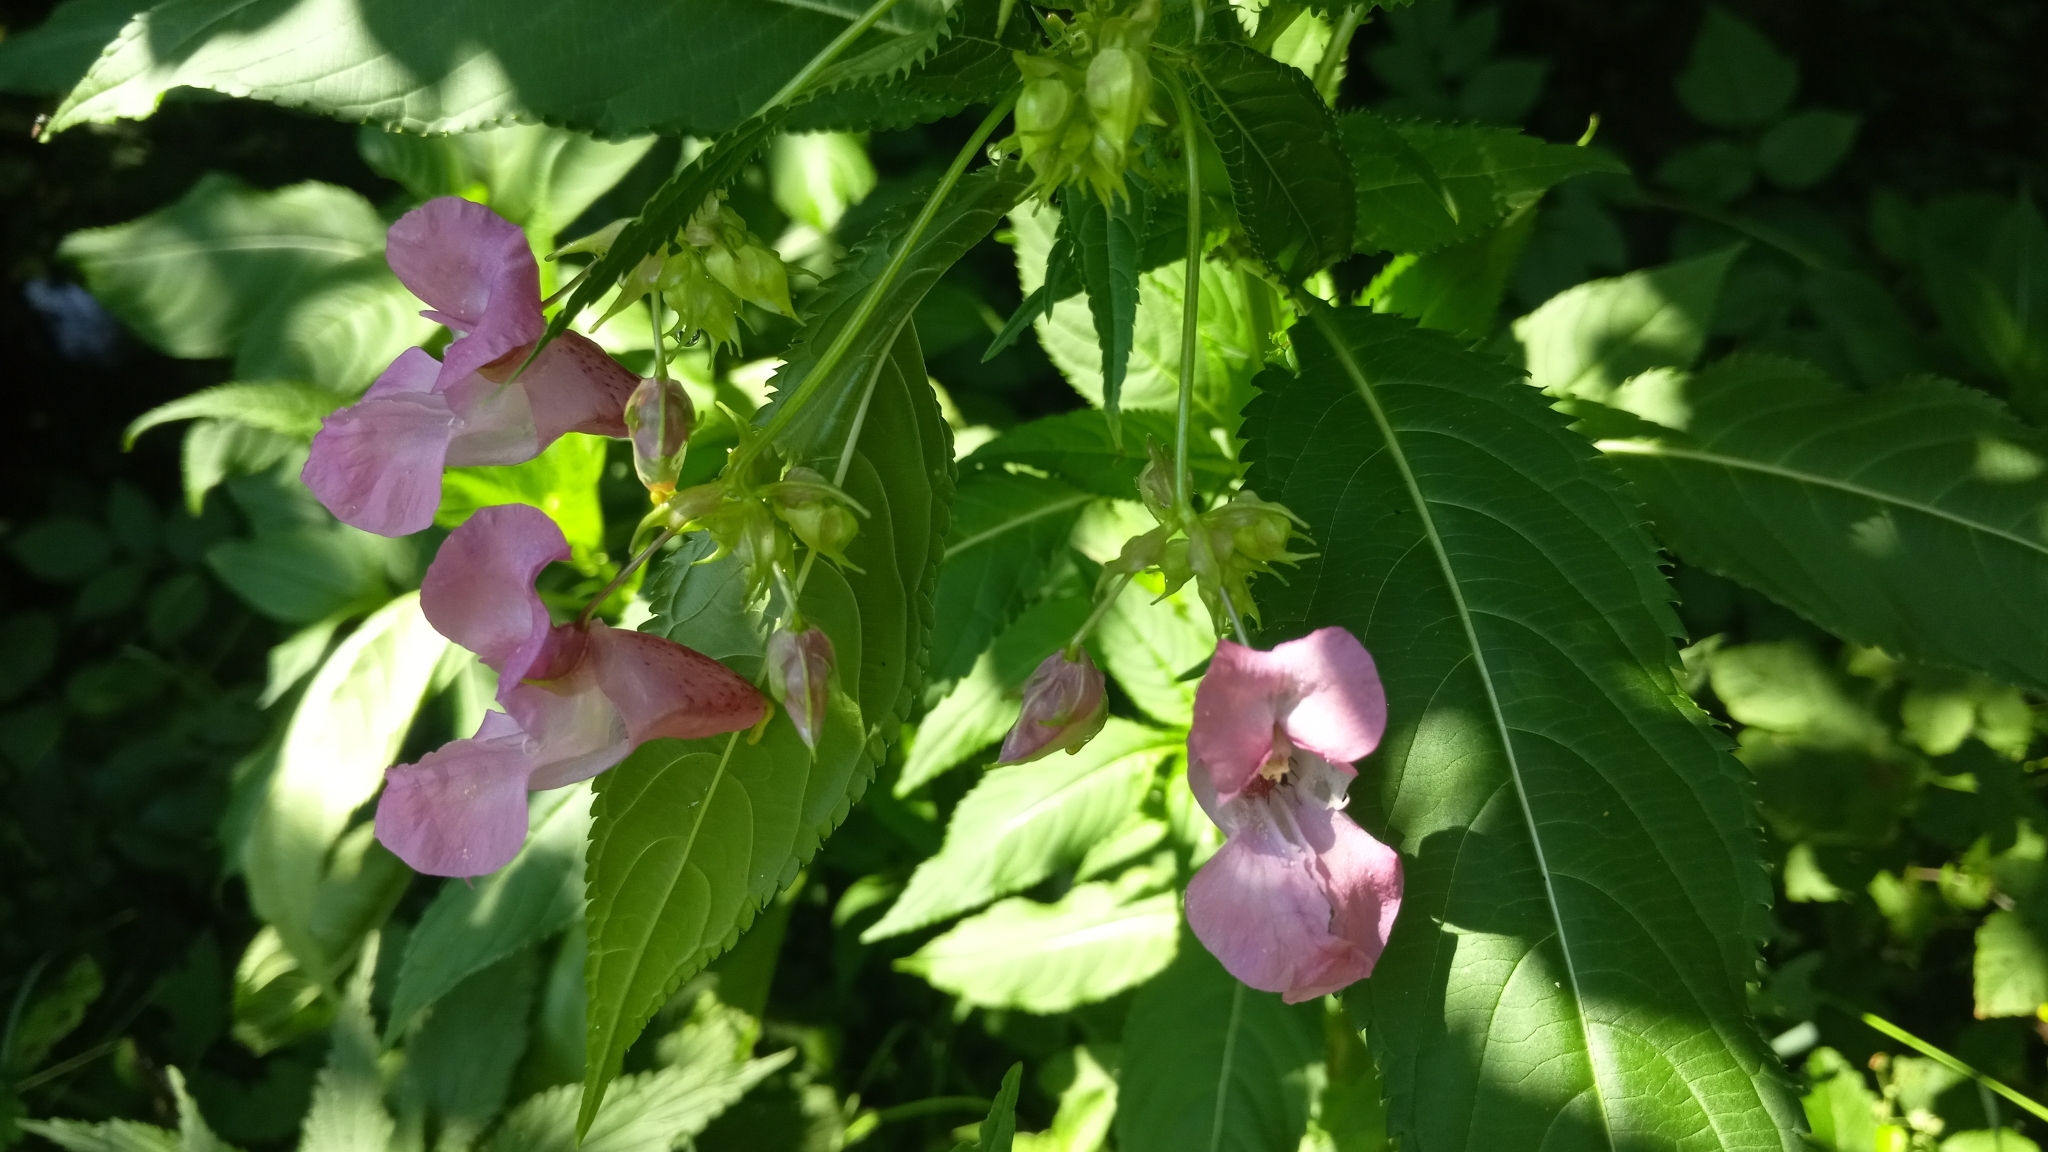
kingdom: Plantae
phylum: Tracheophyta
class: Magnoliopsida
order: Ericales
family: Balsaminaceae
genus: Impatiens
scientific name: Impatiens glandulifera
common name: Himalayan balsam
